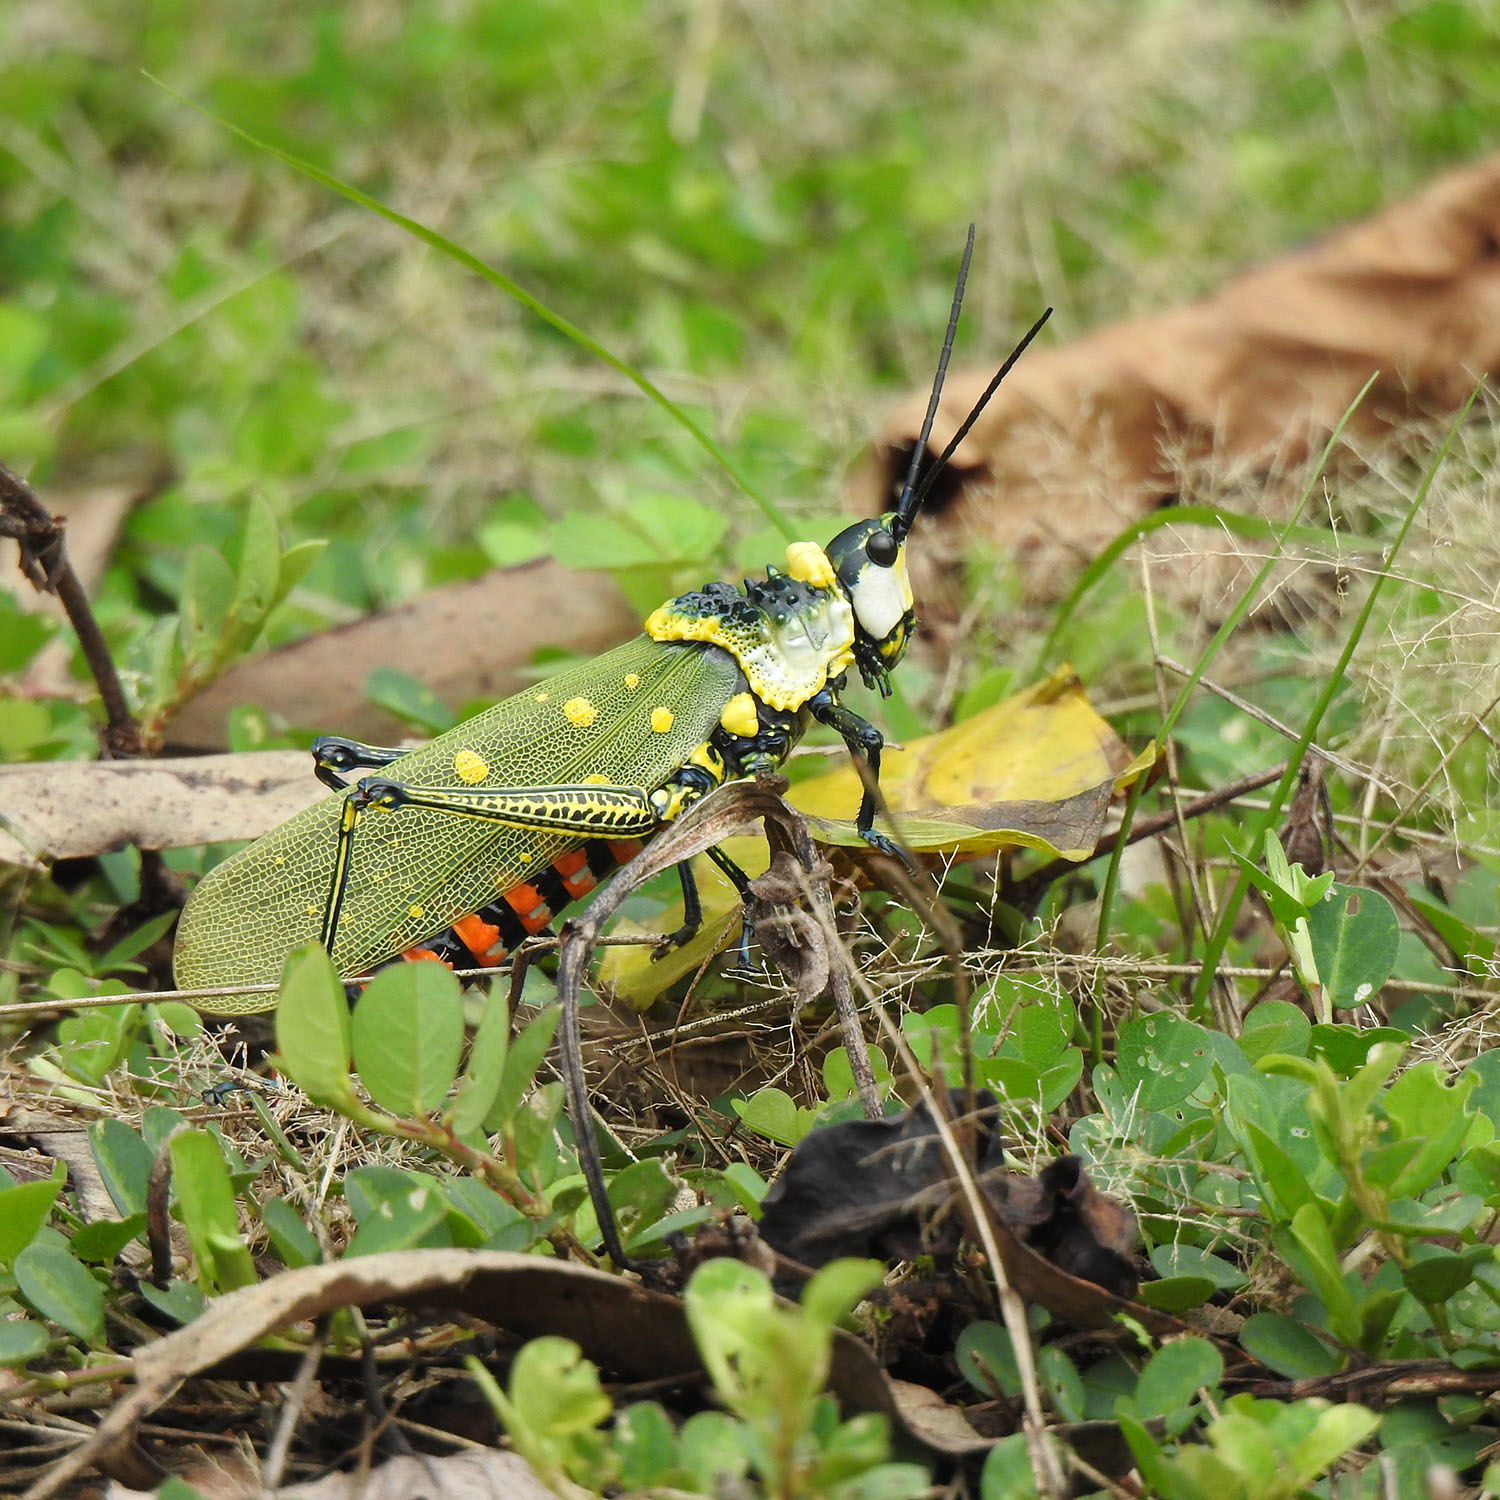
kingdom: Animalia
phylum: Arthropoda
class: Insecta
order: Orthoptera
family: Pyrgomorphidae
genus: Aularches
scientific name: Aularches miliaris
